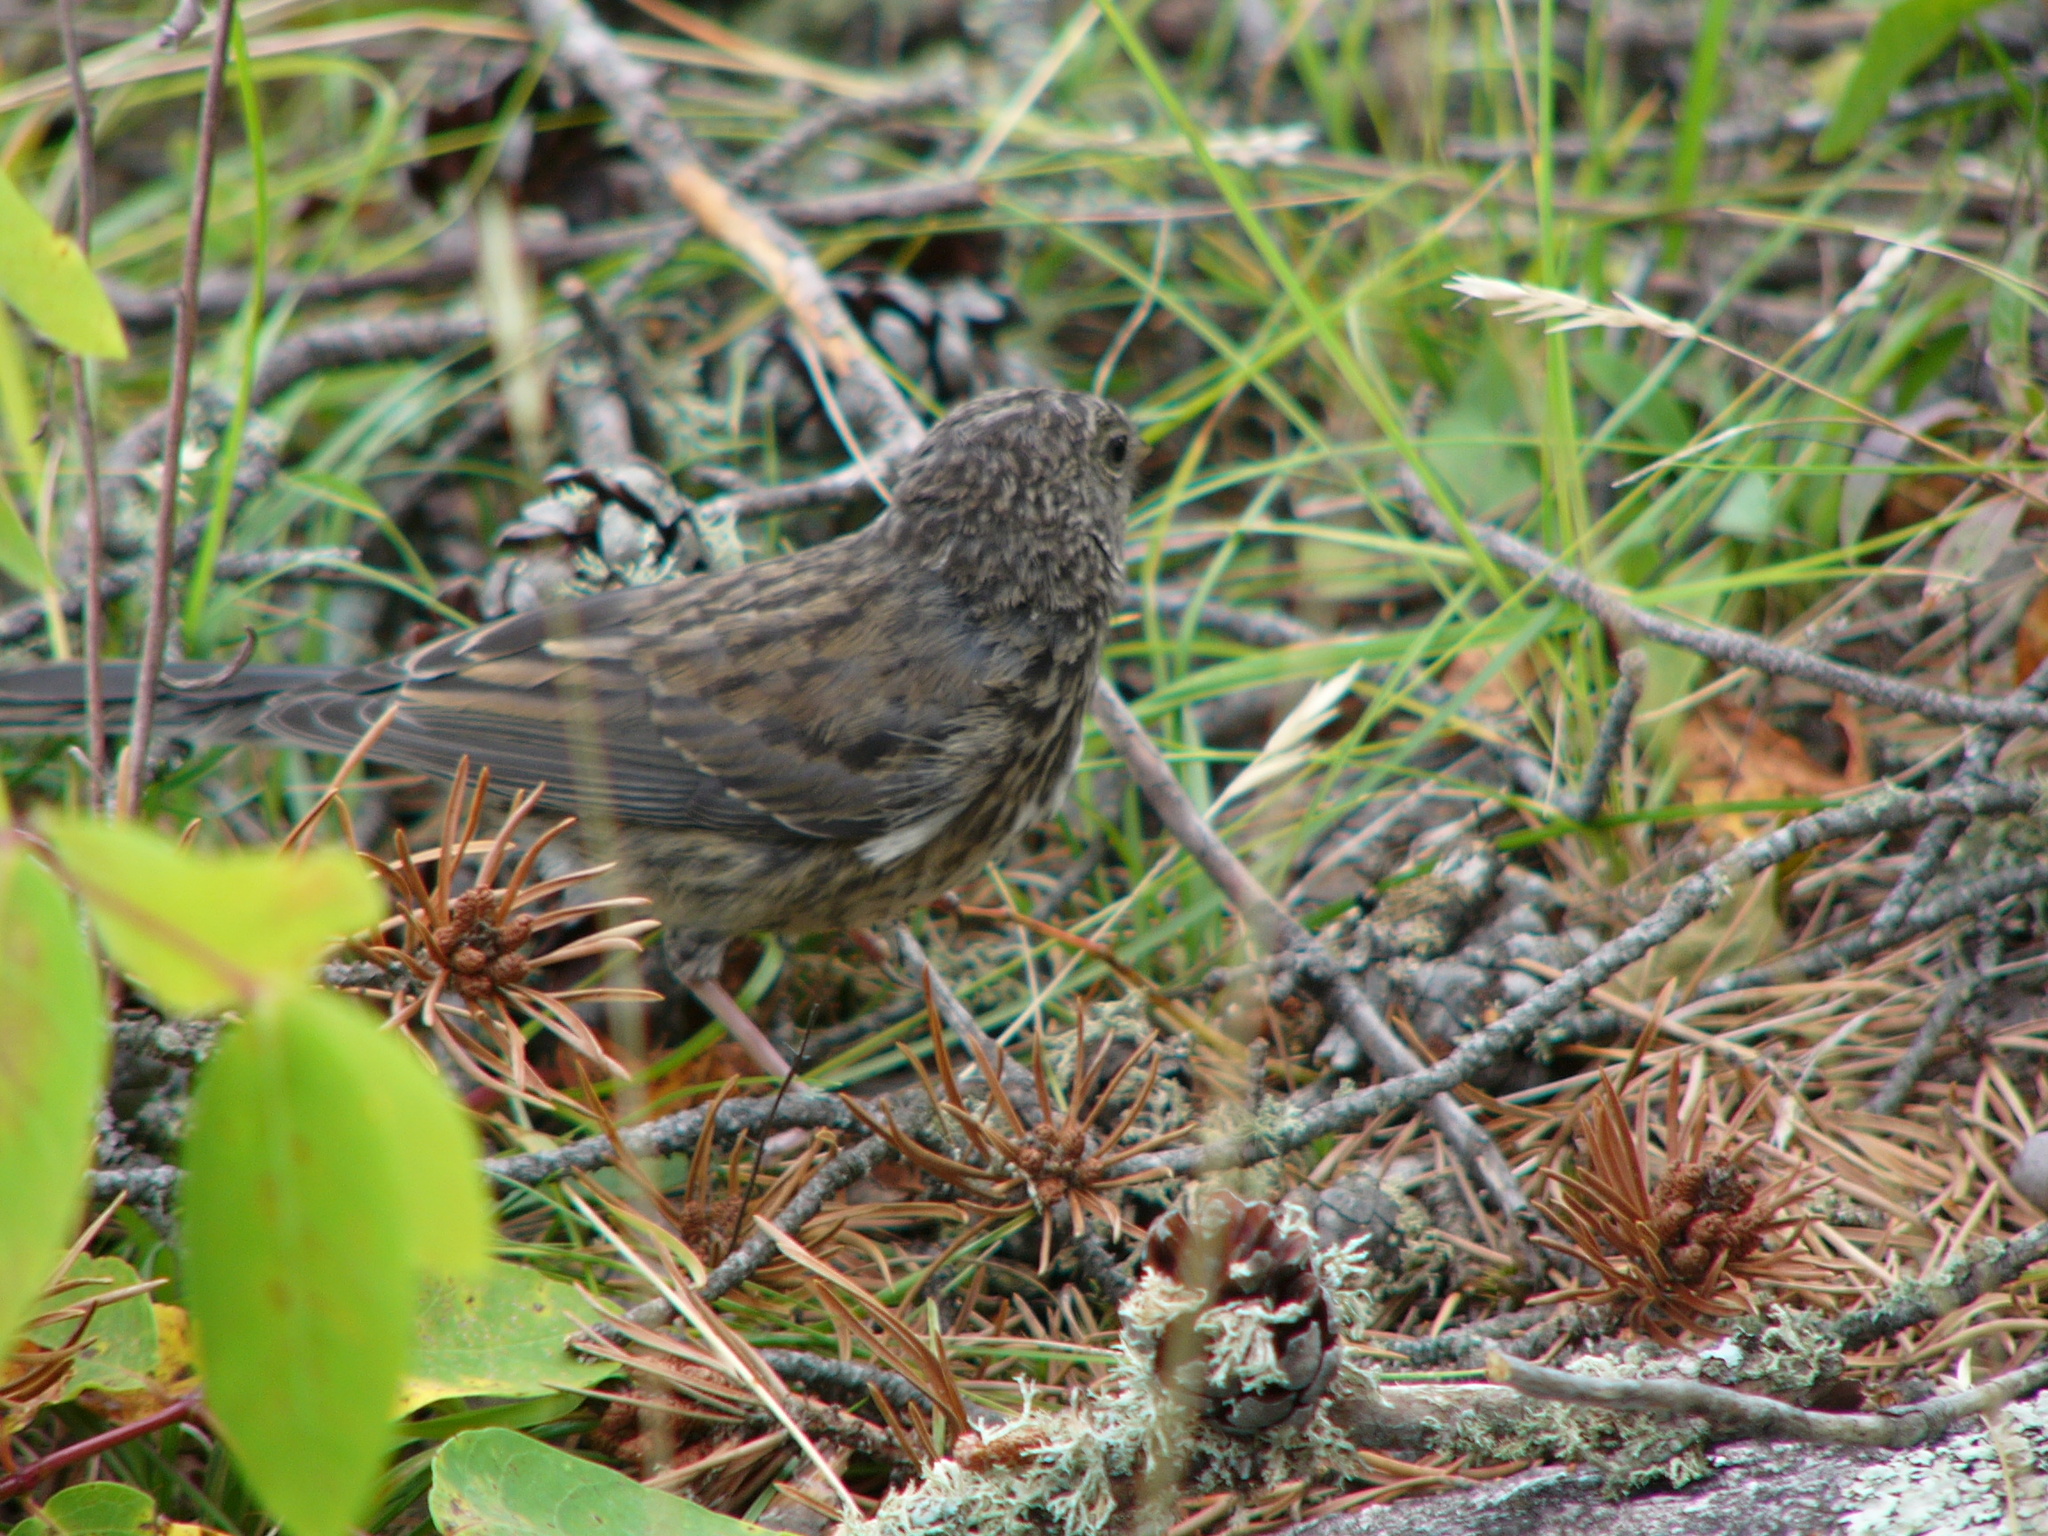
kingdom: Animalia
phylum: Chordata
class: Aves
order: Passeriformes
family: Passerellidae
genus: Junco
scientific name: Junco hyemalis
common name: Dark-eyed junco
